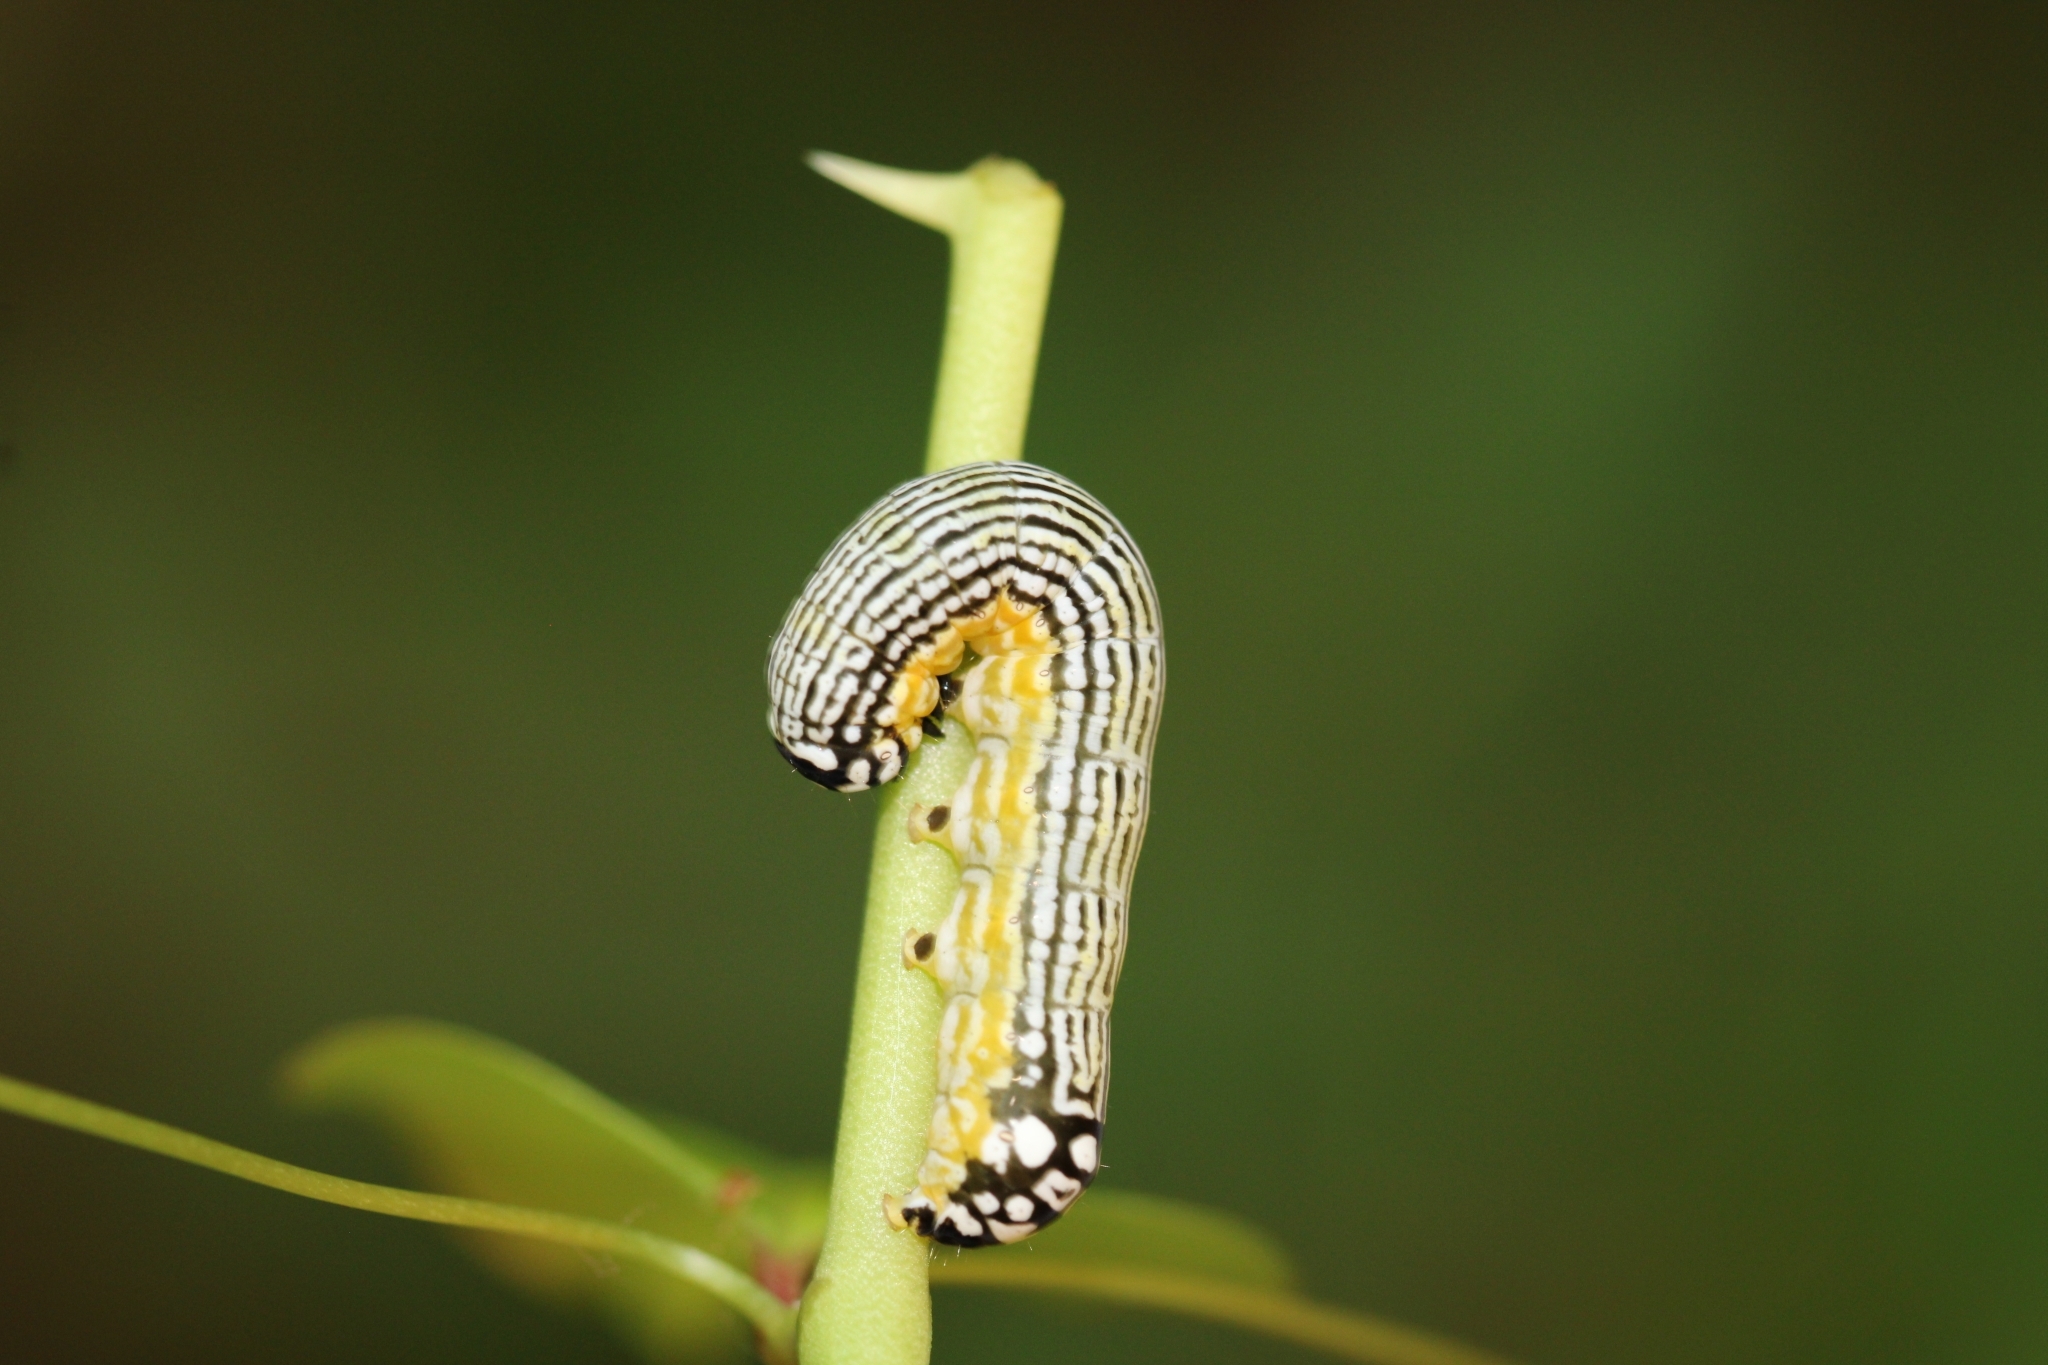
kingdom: Animalia
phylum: Arthropoda
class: Insecta
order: Lepidoptera
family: Noctuidae
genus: Phosphila
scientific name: Phosphila turbulenta
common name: Turbulent phosphila moth
